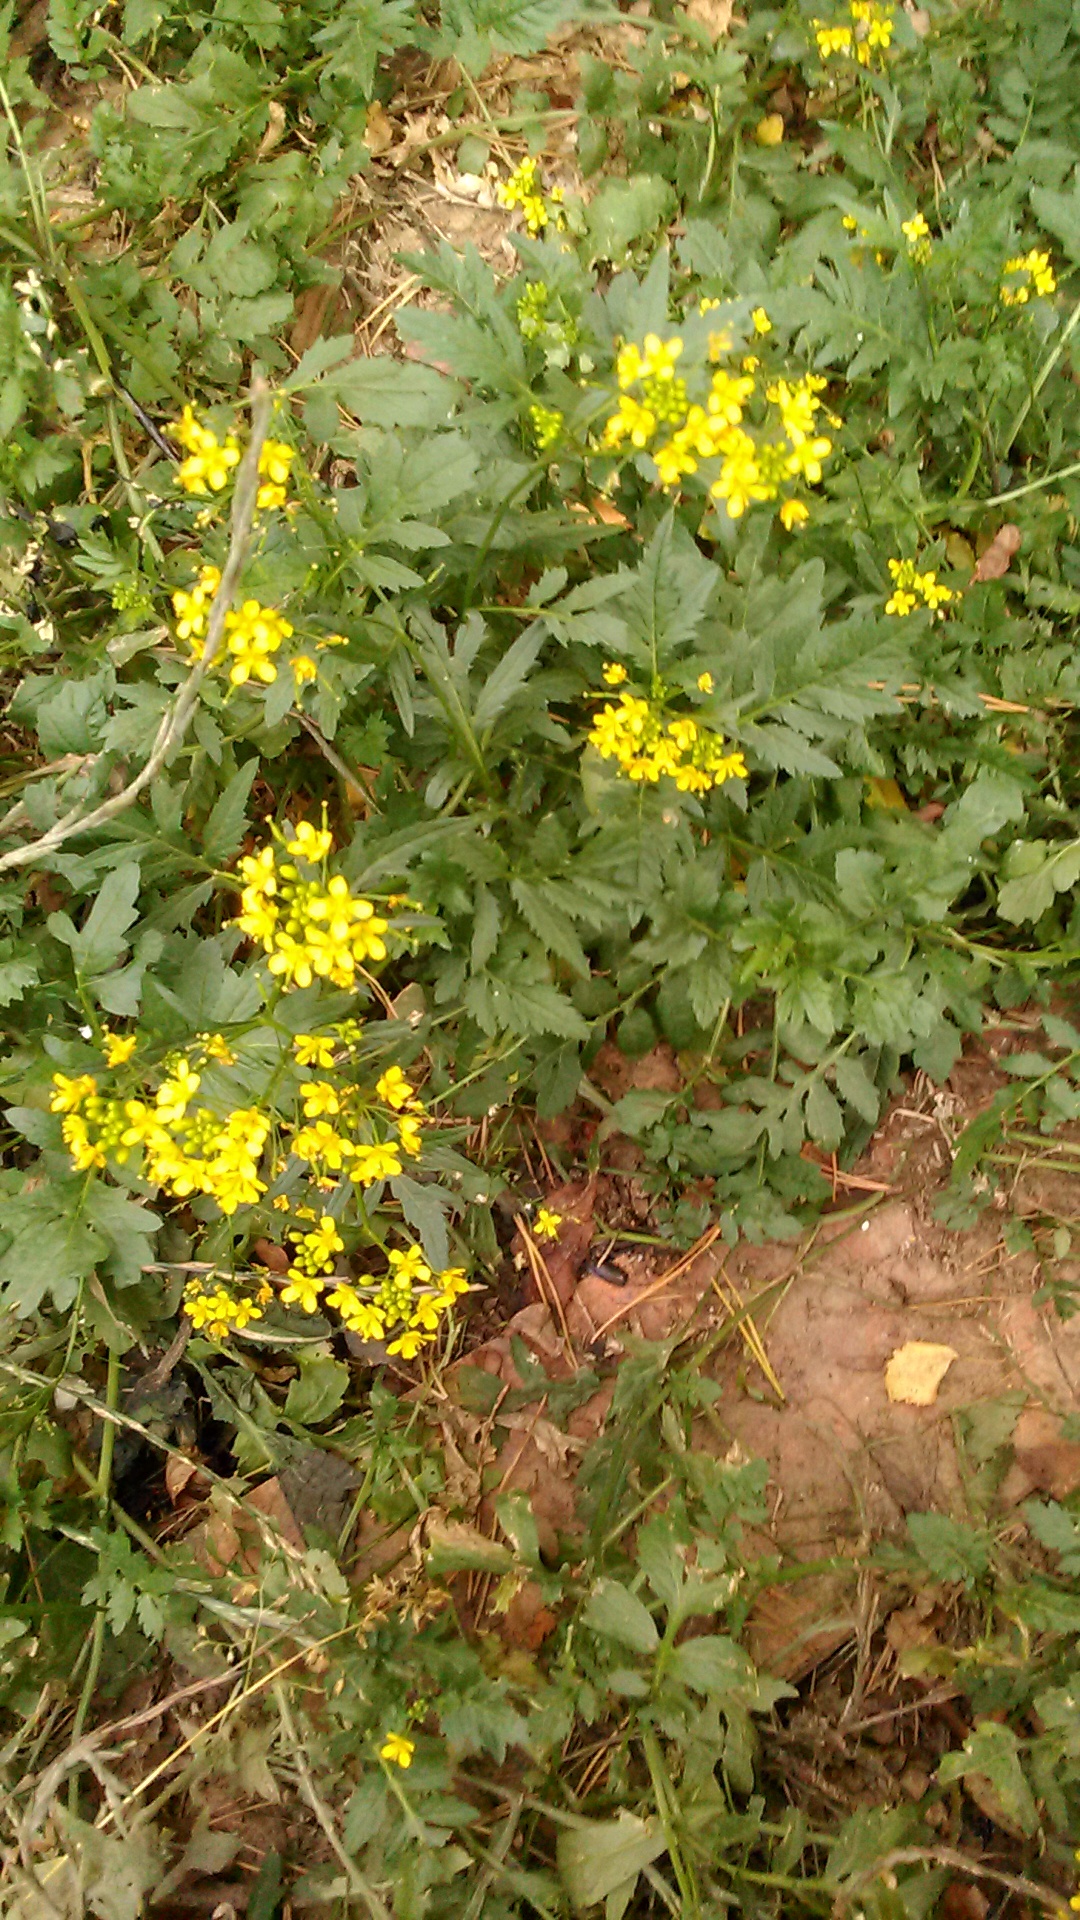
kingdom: Plantae
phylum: Tracheophyta
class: Magnoliopsida
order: Brassicales
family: Brassicaceae
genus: Rorippa
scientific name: Rorippa sylvestris
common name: Creeping yellowcress
